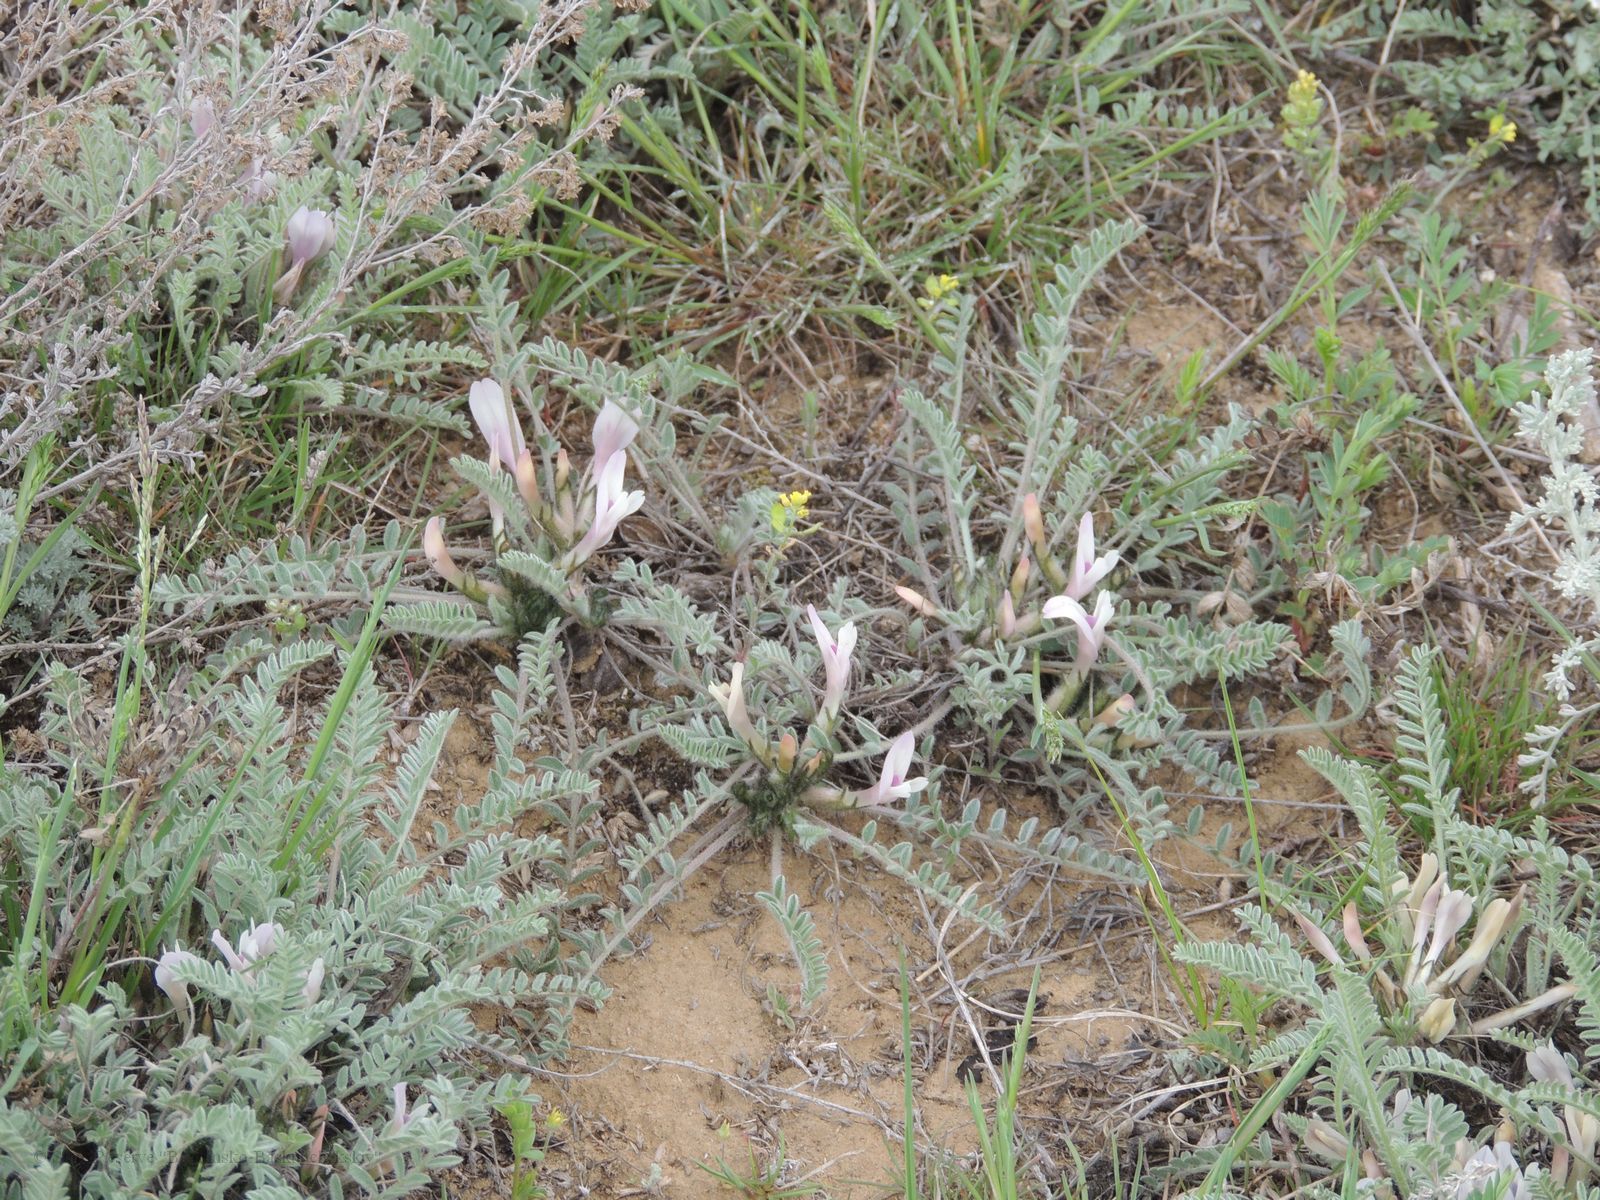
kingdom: Plantae
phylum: Tracheophyta
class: Magnoliopsida
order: Fabales
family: Fabaceae
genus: Astragalus
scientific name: Astragalus testiculatus
